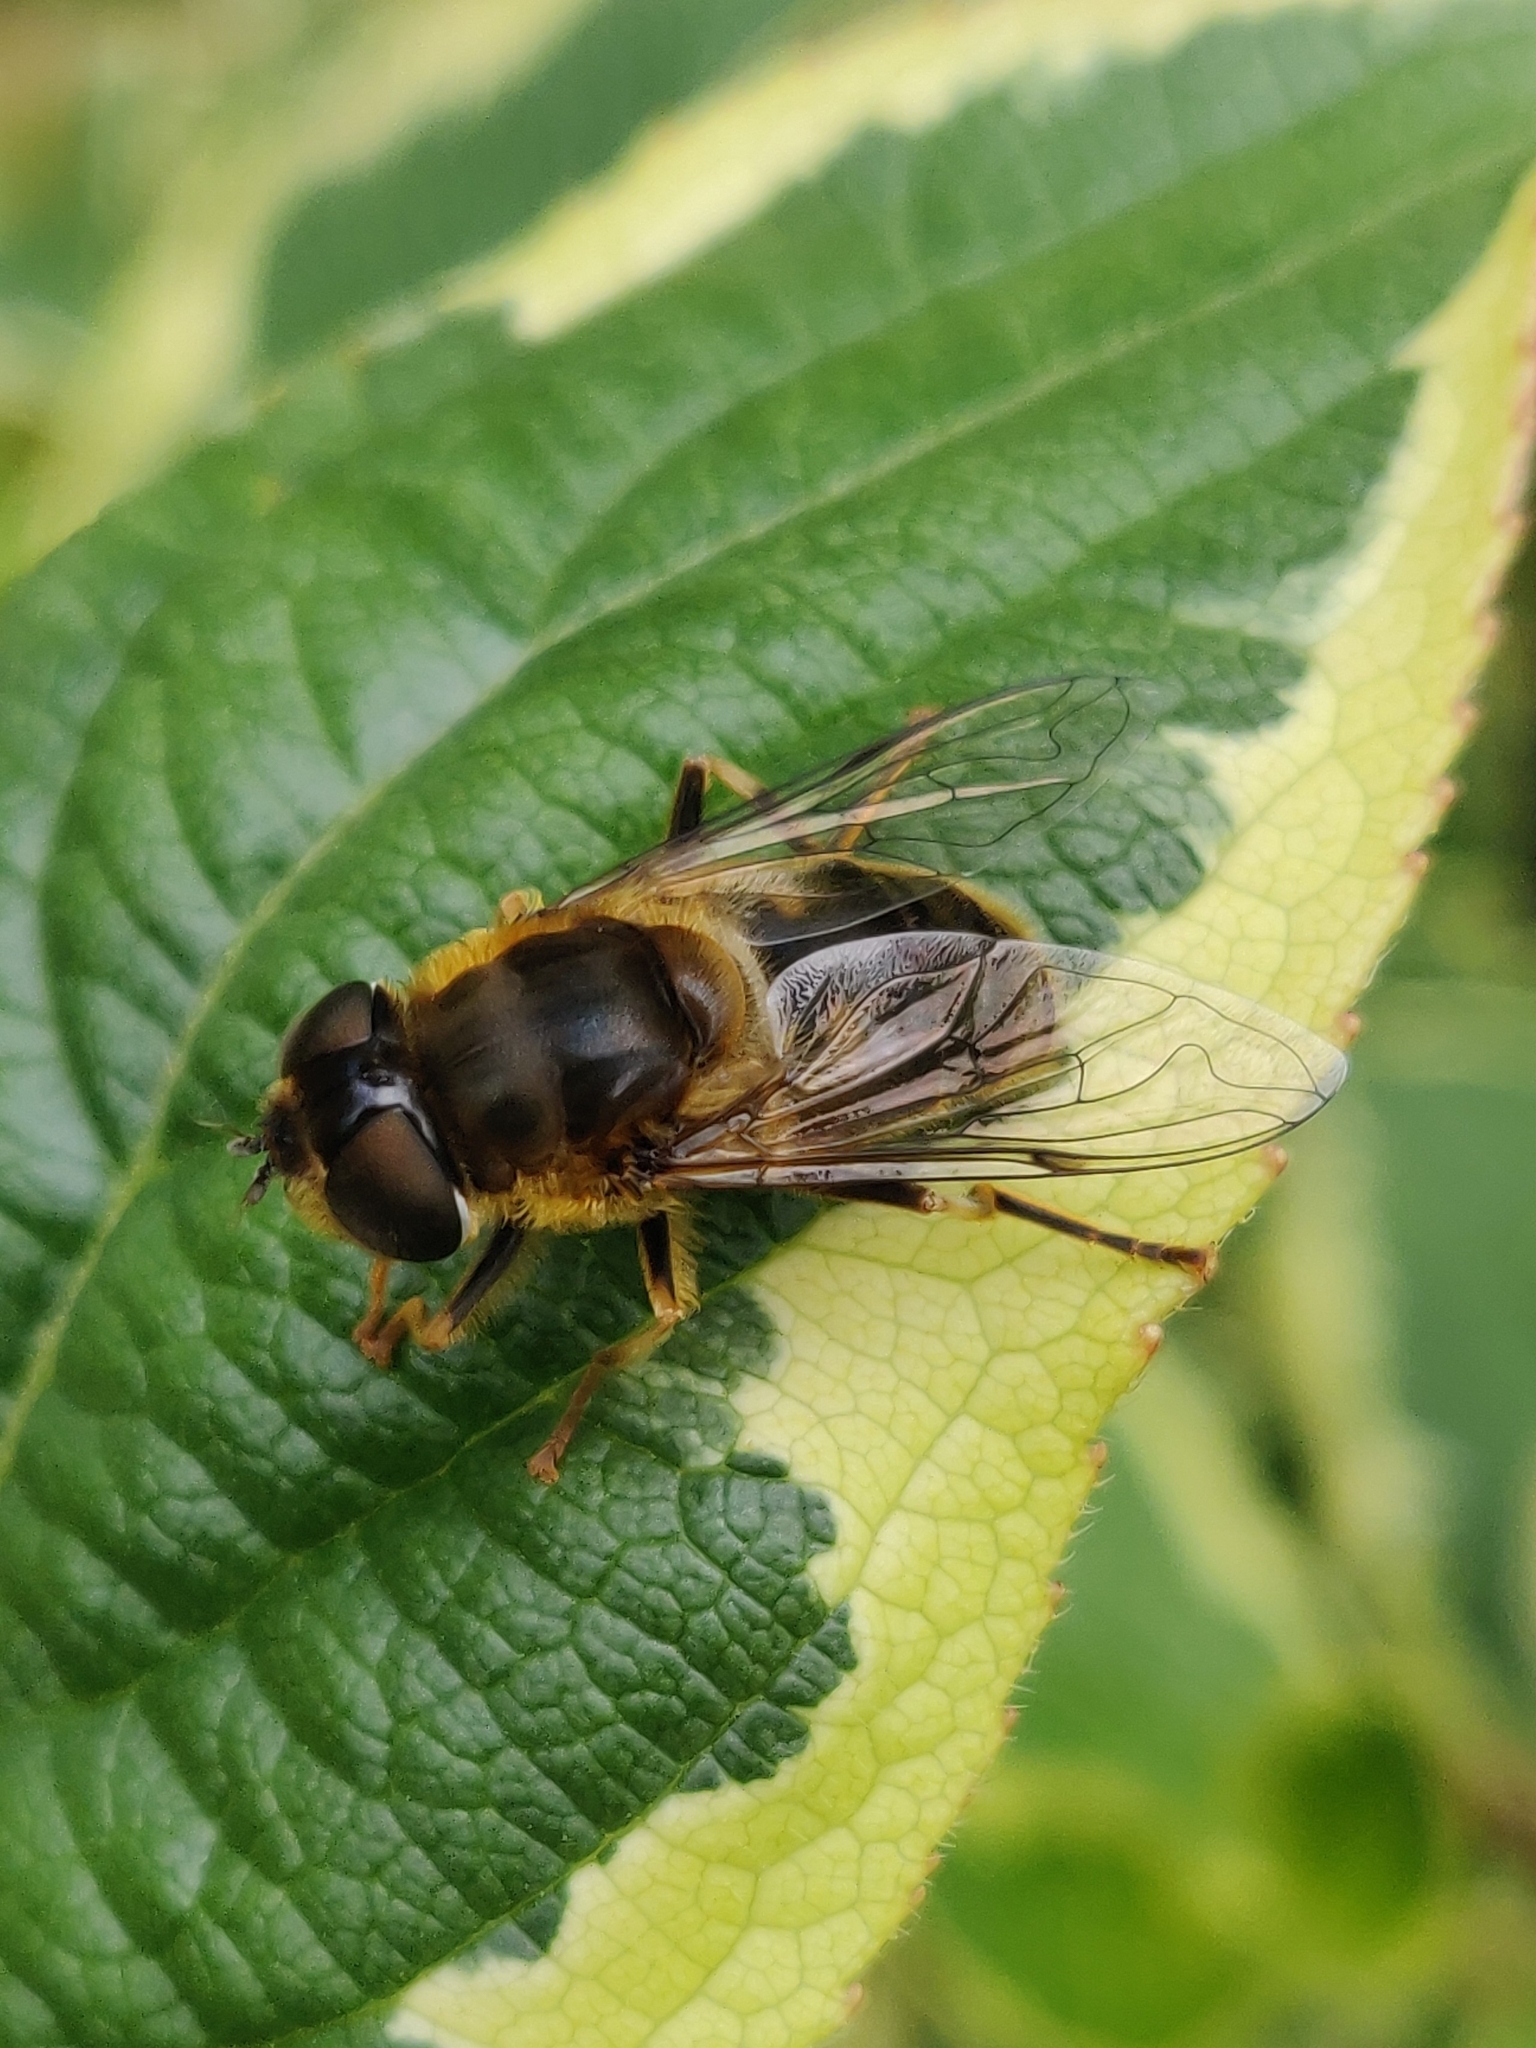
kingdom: Animalia
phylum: Arthropoda
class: Insecta
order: Diptera
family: Syrphidae
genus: Eristalis
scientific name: Eristalis pertinax
